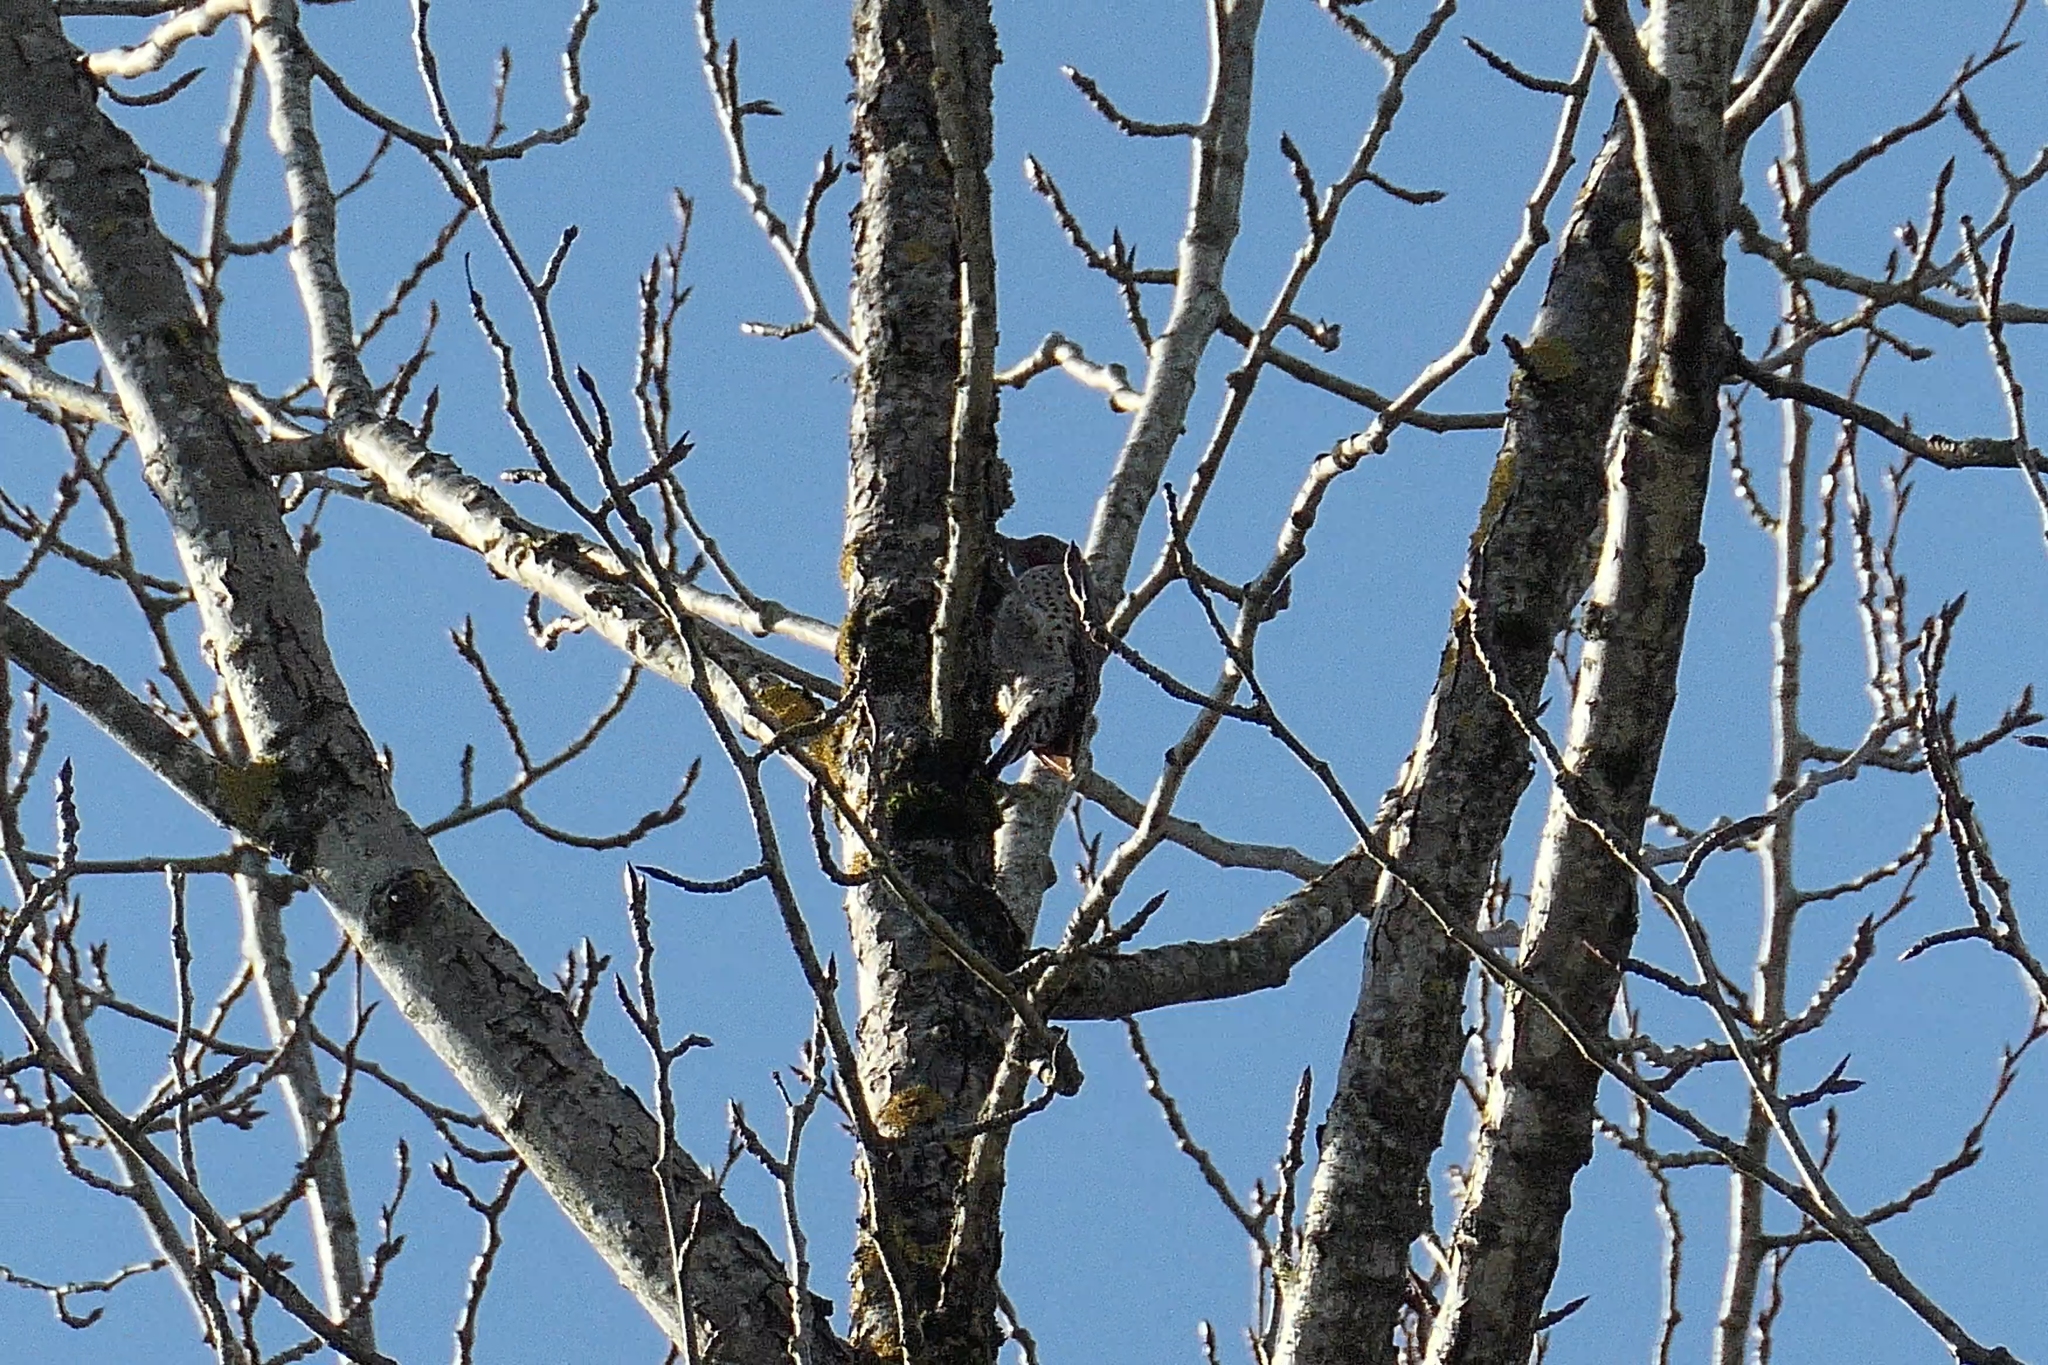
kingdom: Animalia
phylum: Chordata
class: Aves
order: Piciformes
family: Picidae
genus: Colaptes
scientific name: Colaptes auratus
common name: Northern flicker
